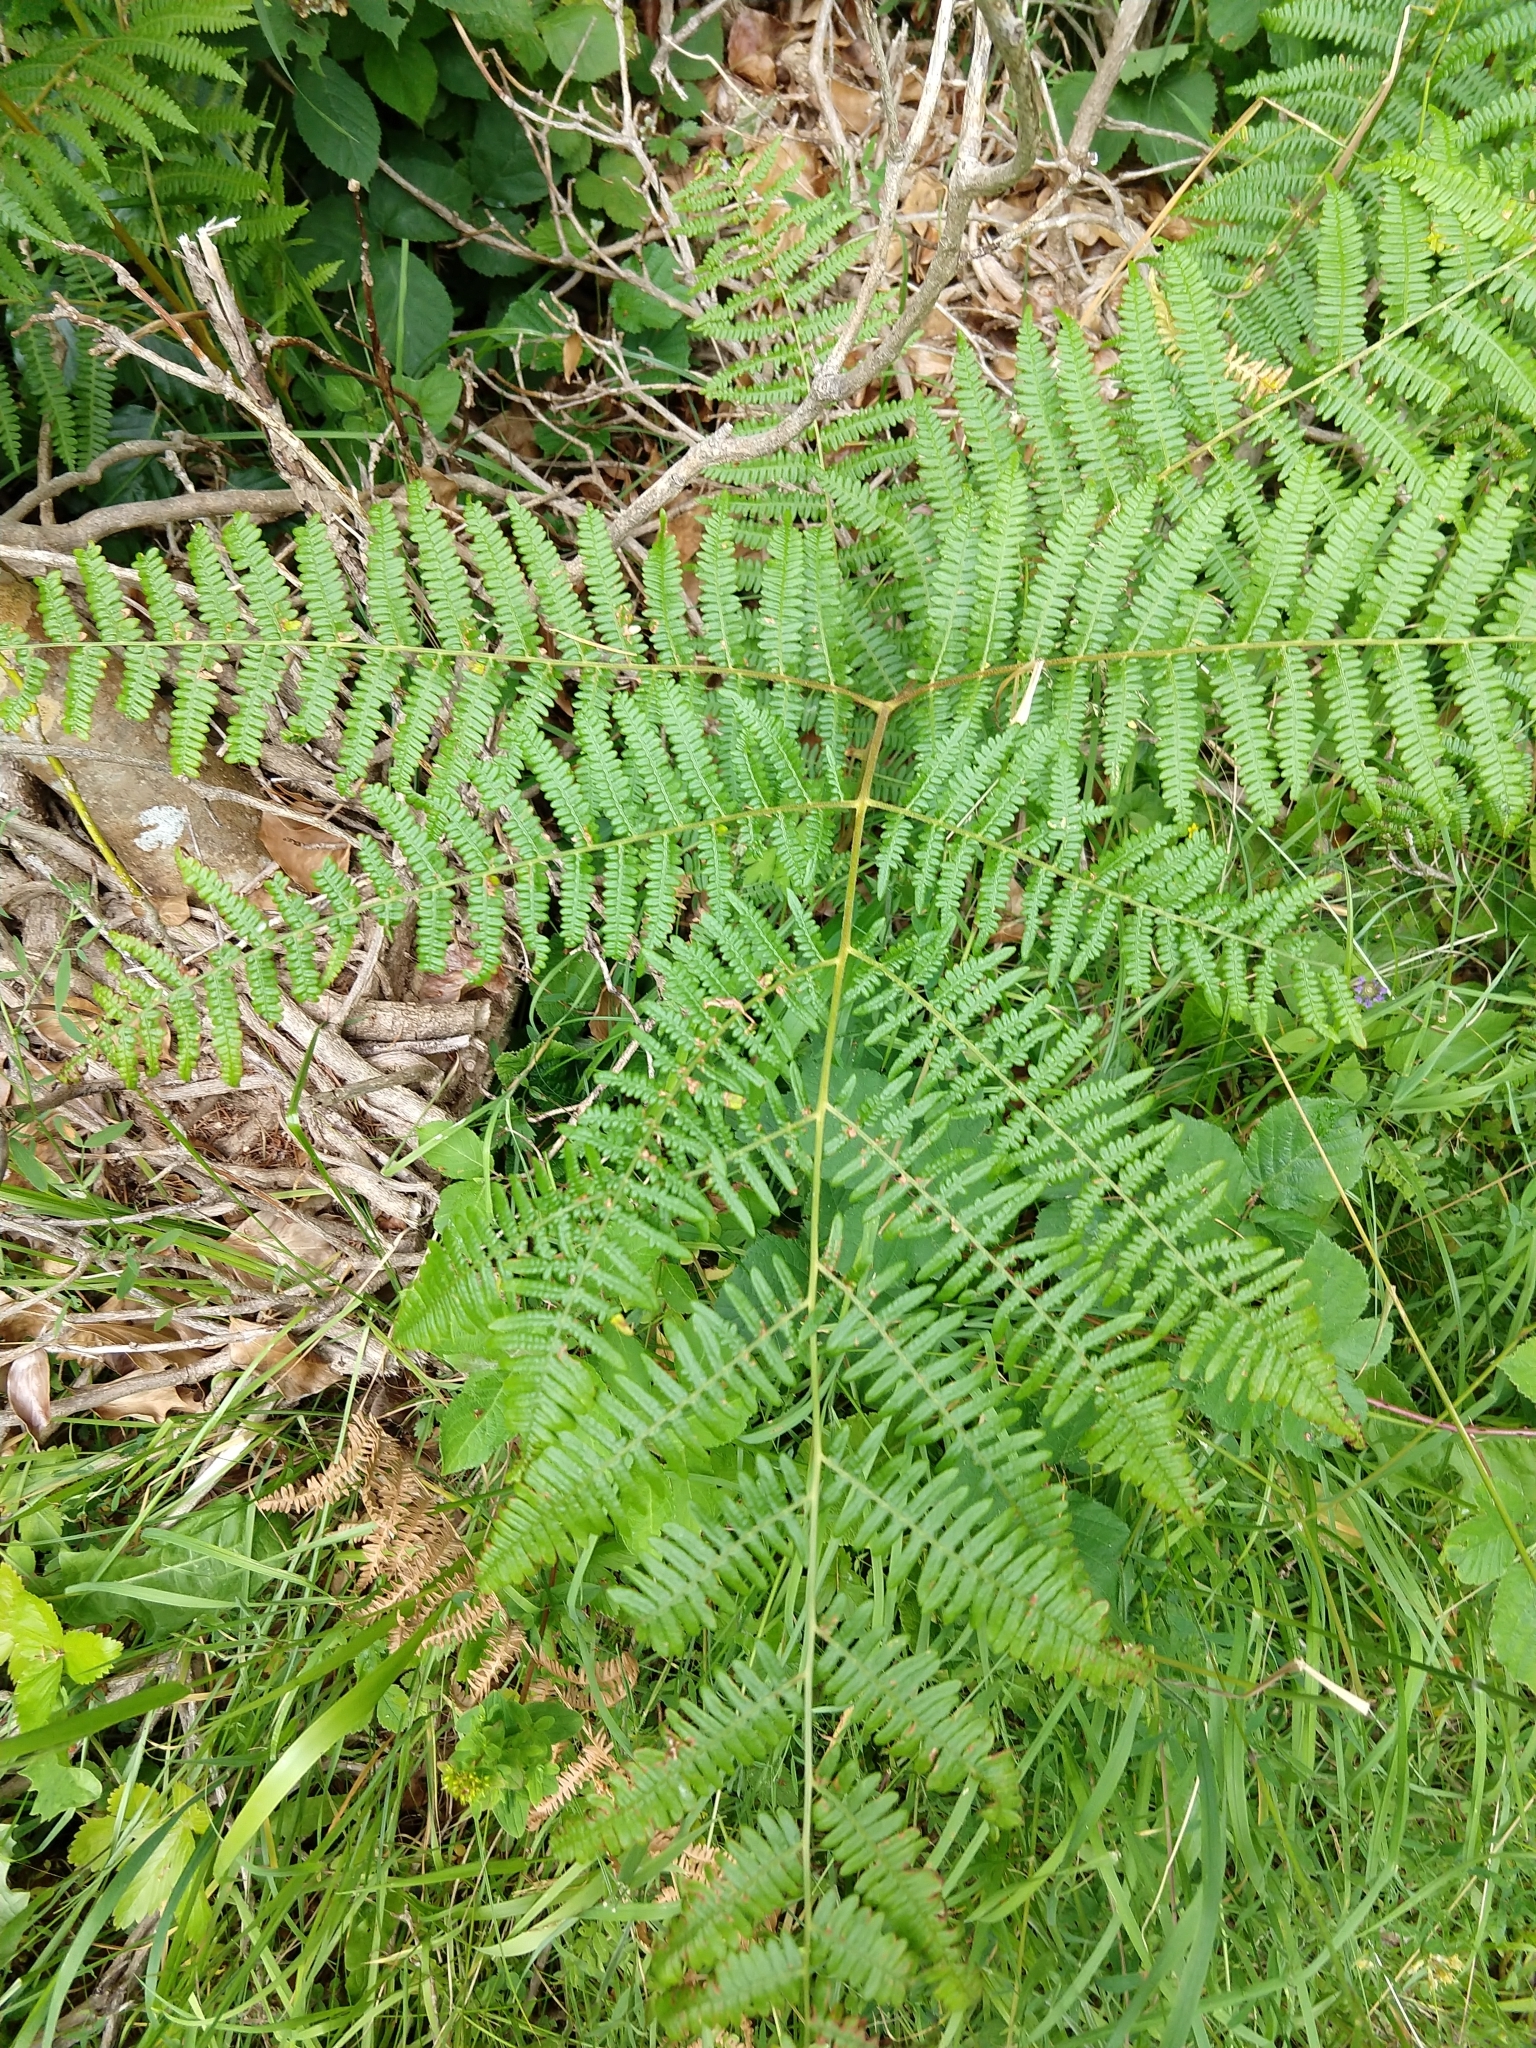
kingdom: Plantae
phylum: Tracheophyta
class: Polypodiopsida
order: Polypodiales
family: Dennstaedtiaceae
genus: Pteridium
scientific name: Pteridium aquilinum
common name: Bracken
